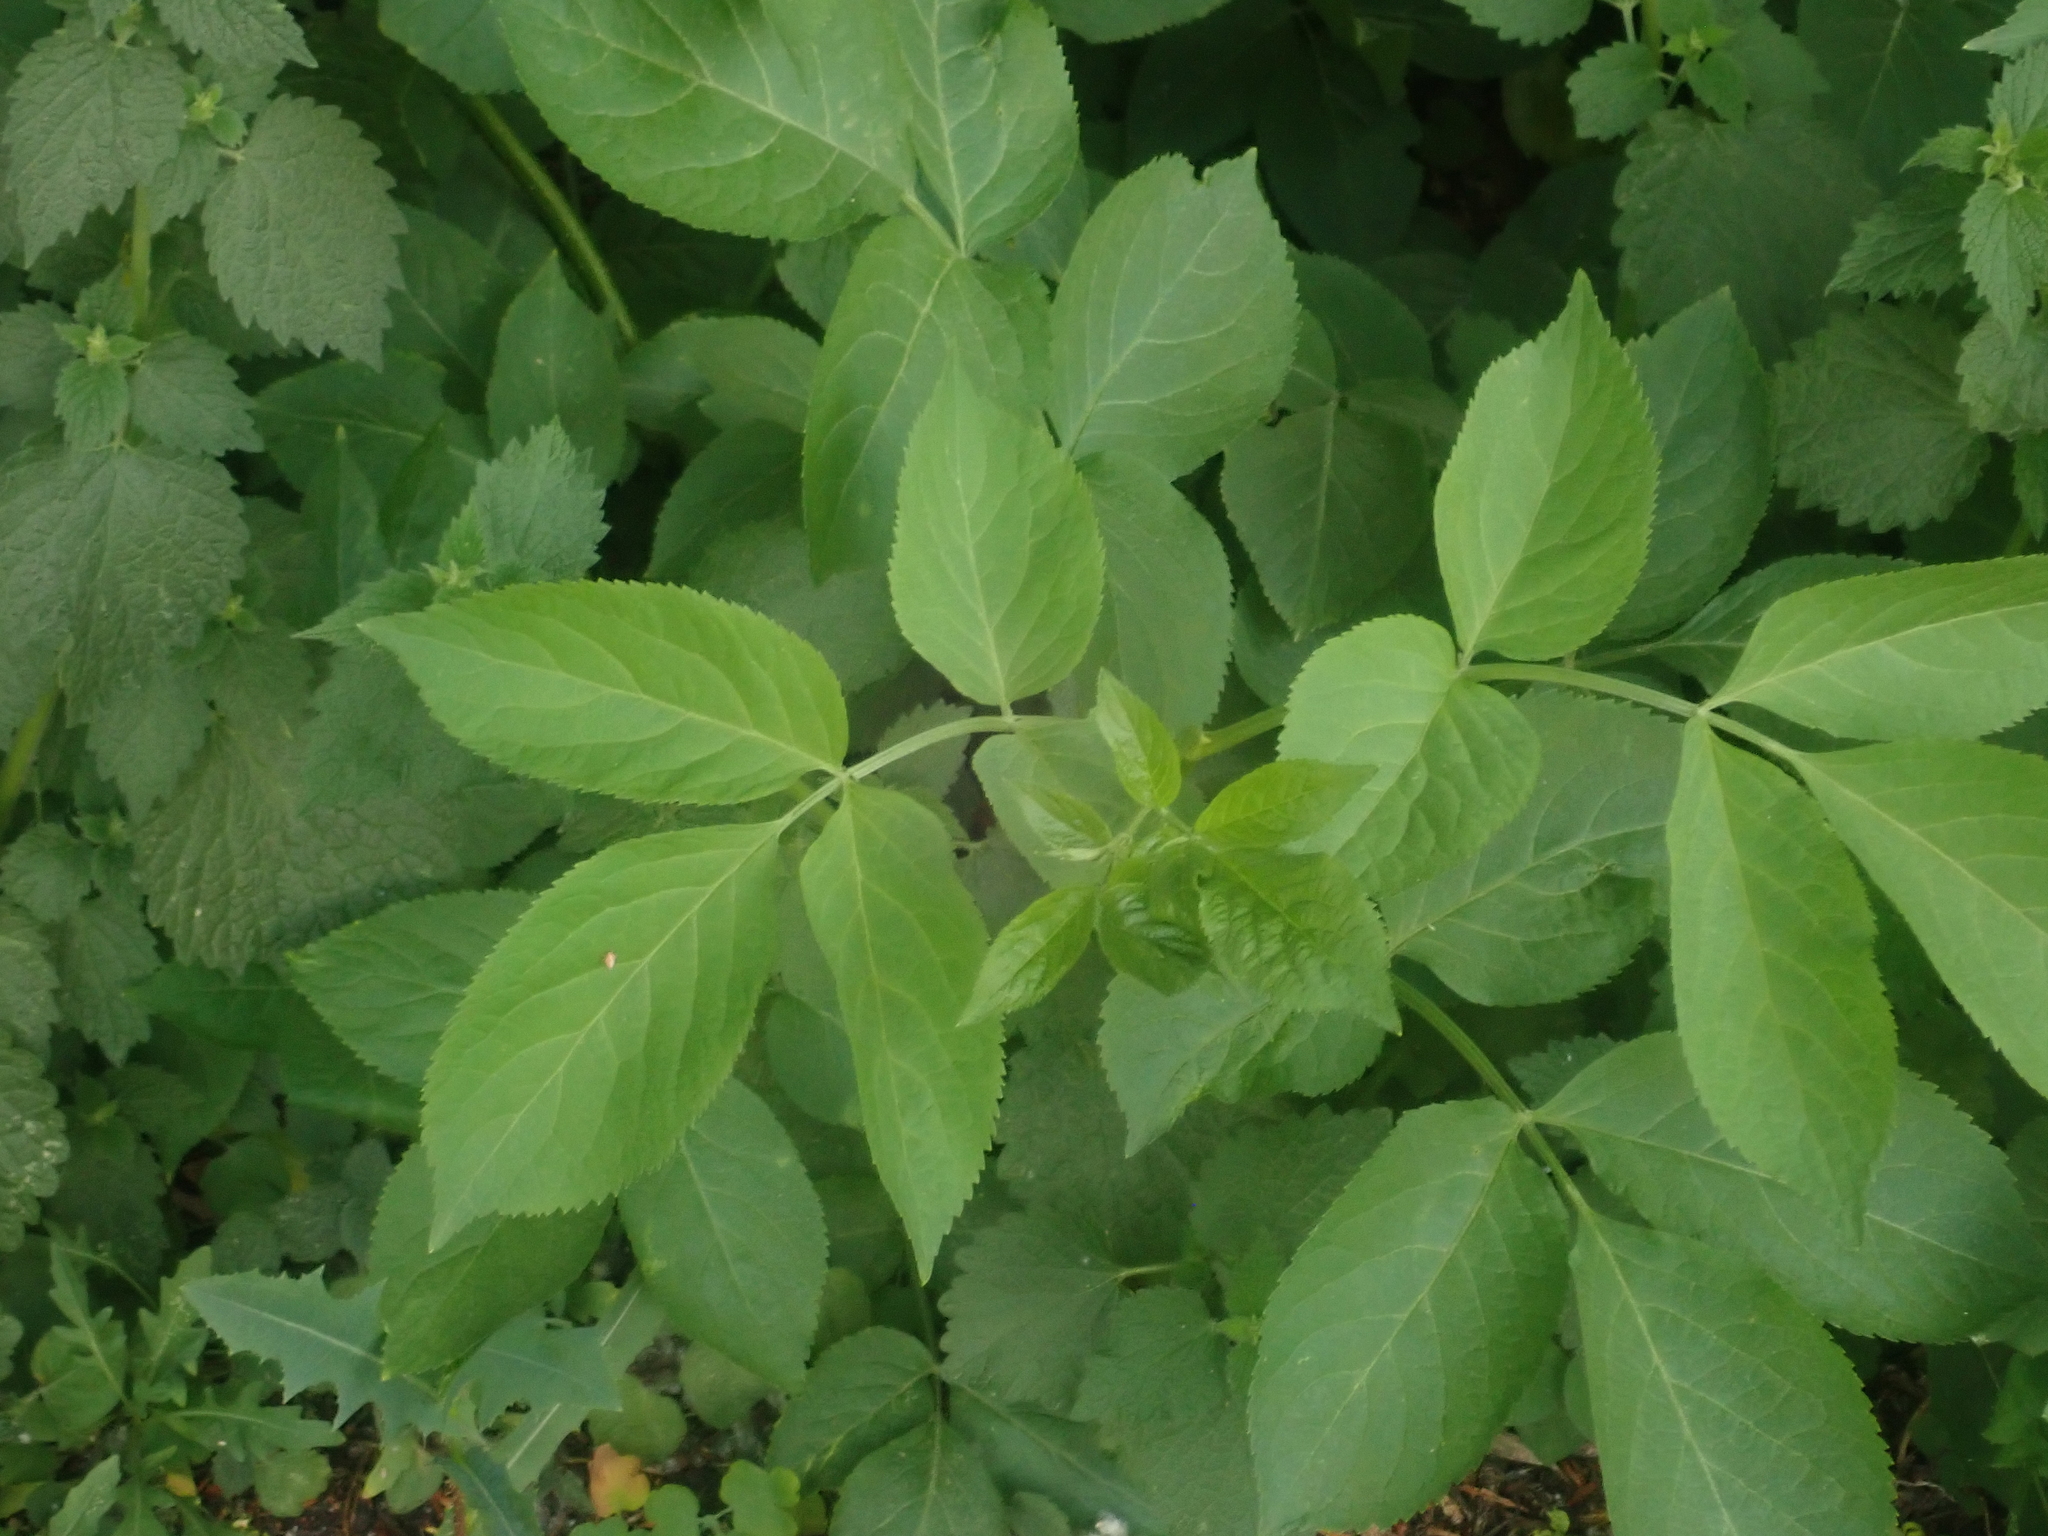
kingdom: Plantae
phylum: Tracheophyta
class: Magnoliopsida
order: Dipsacales
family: Viburnaceae
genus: Sambucus
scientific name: Sambucus nigra
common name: Elder
